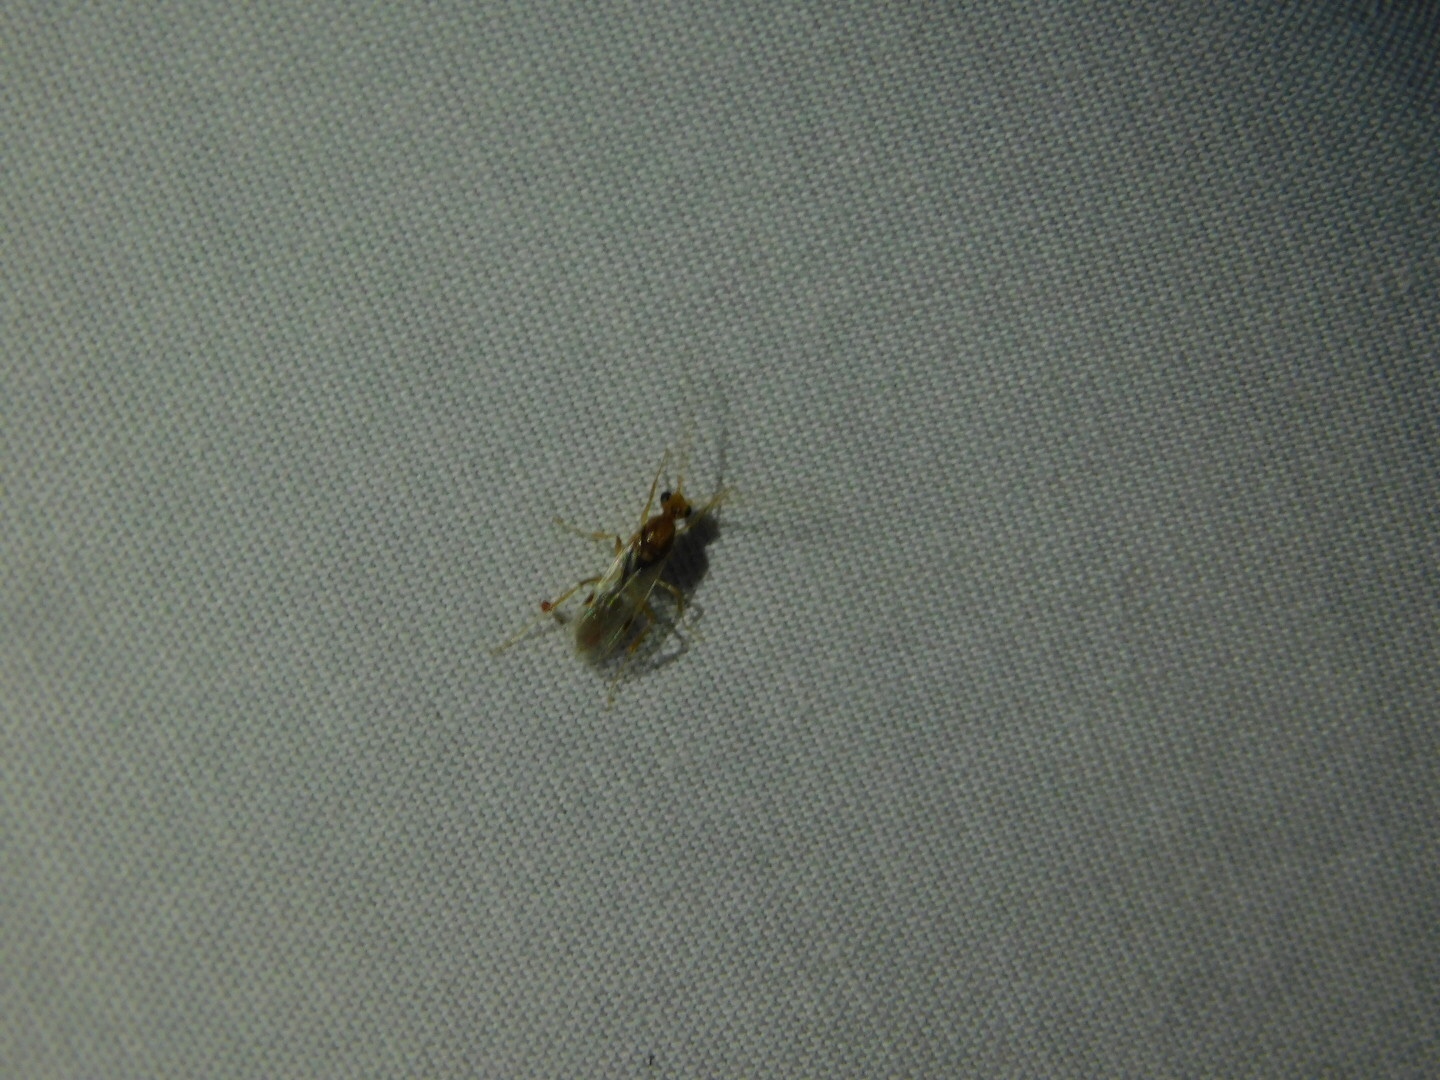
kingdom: Animalia
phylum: Arthropoda
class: Insecta
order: Hymenoptera
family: Formicidae
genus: Odontomachus
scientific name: Odontomachus ruginodis
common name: Trapjaw ant
